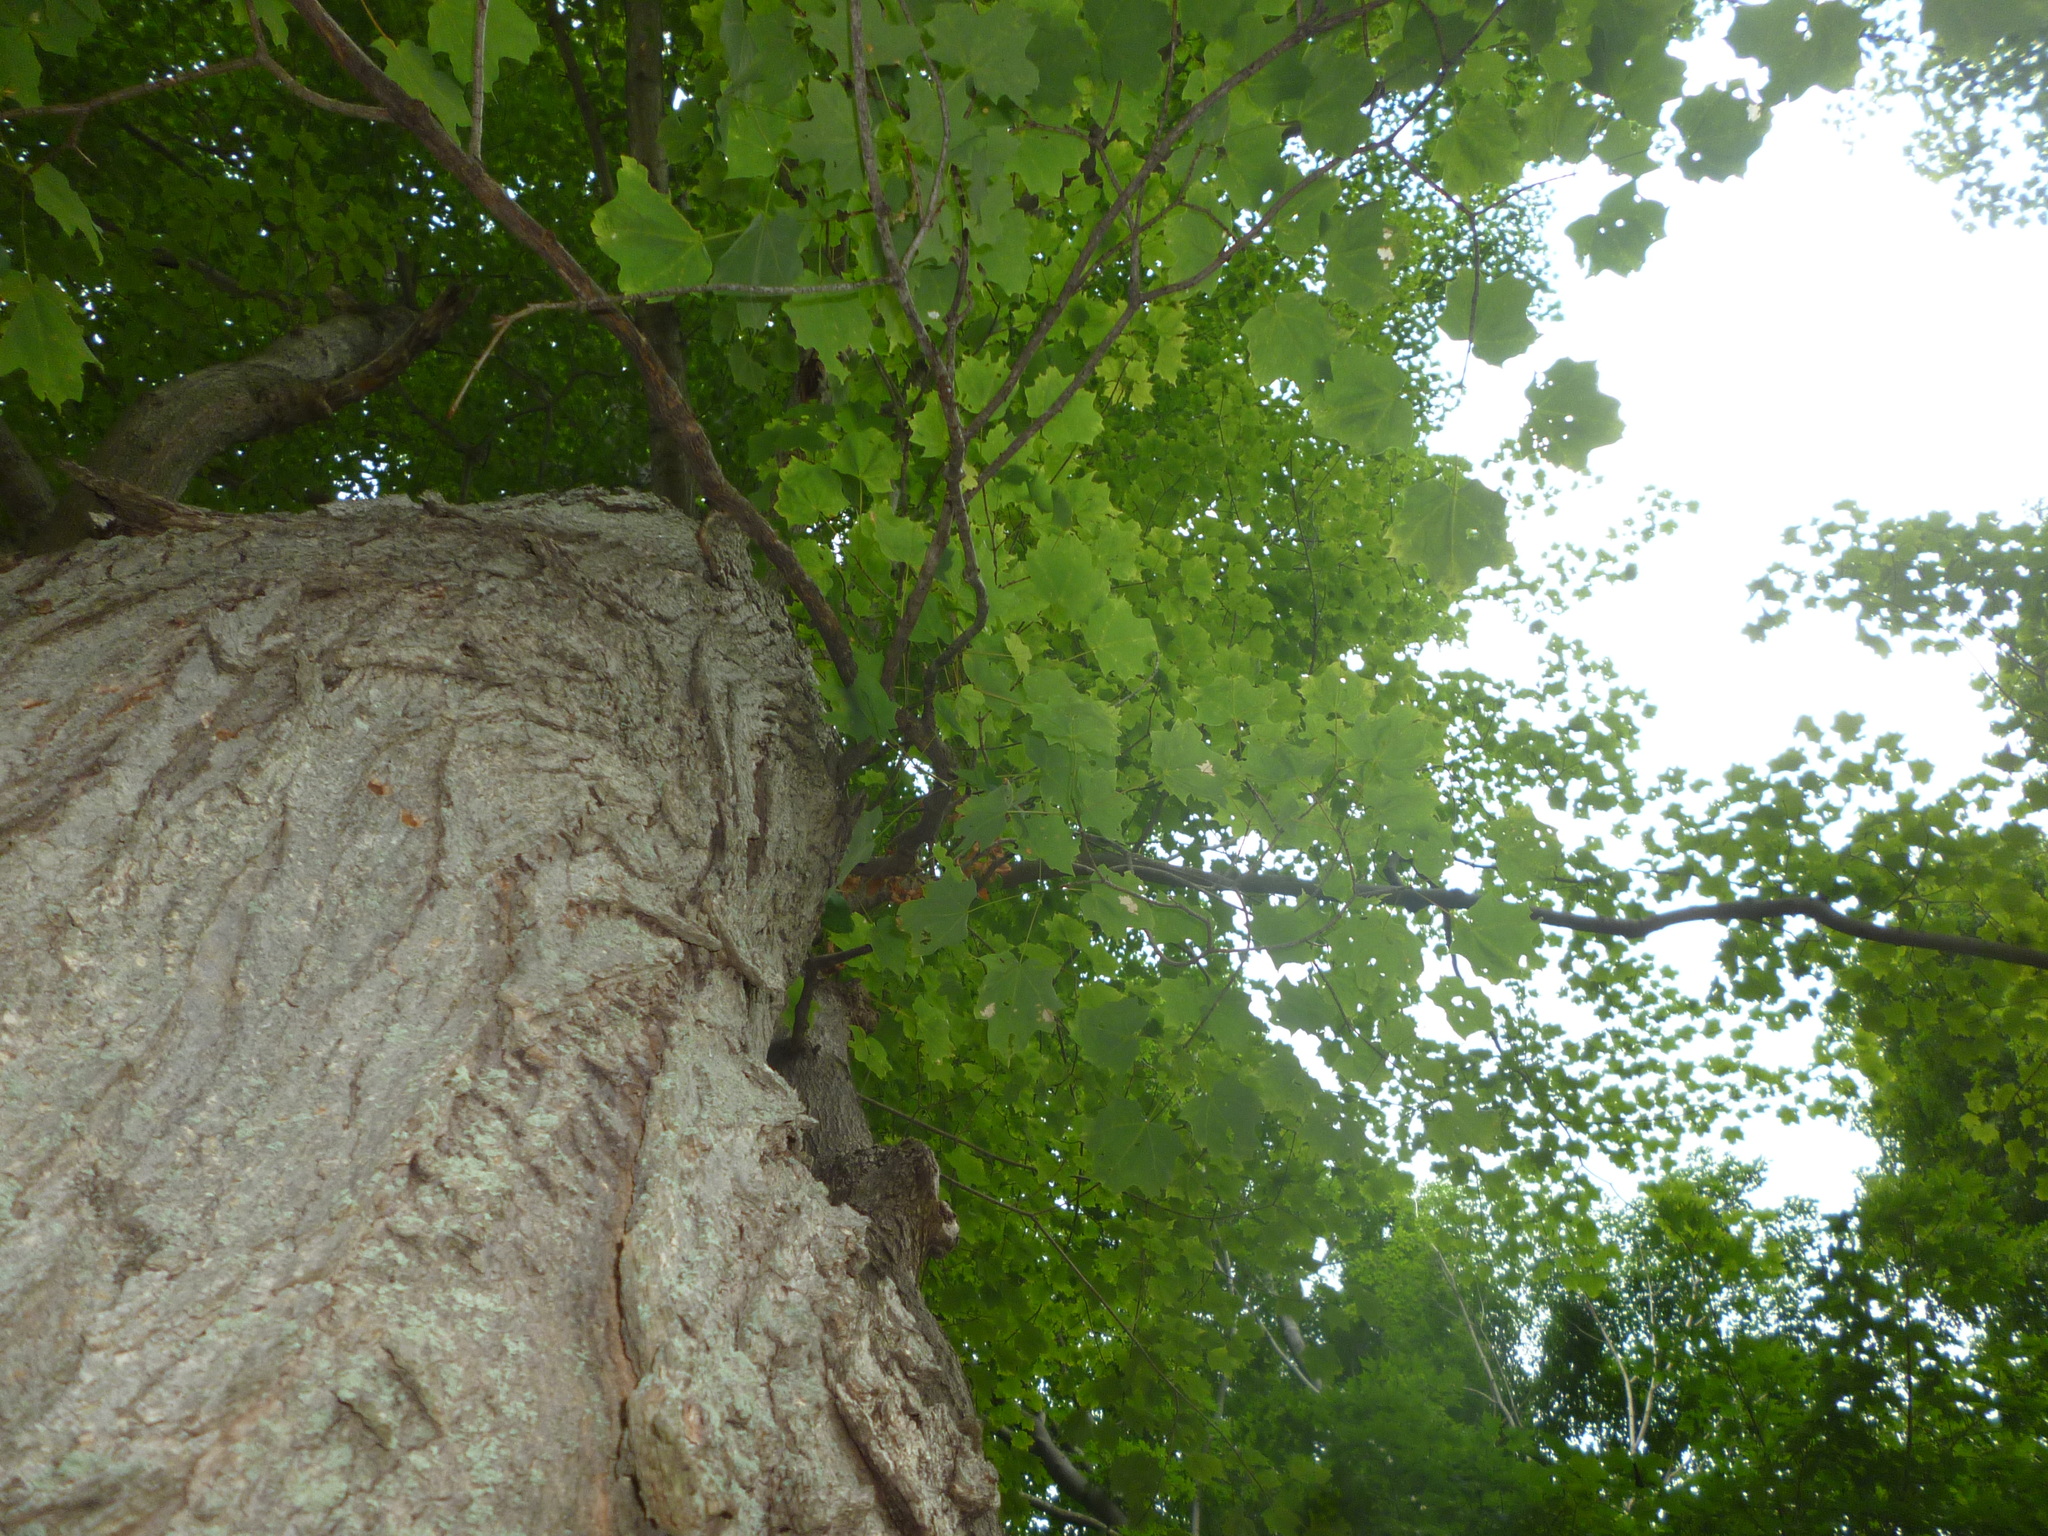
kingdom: Plantae
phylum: Tracheophyta
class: Magnoliopsida
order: Sapindales
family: Sapindaceae
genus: Acer
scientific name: Acer saccharum
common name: Sugar maple
